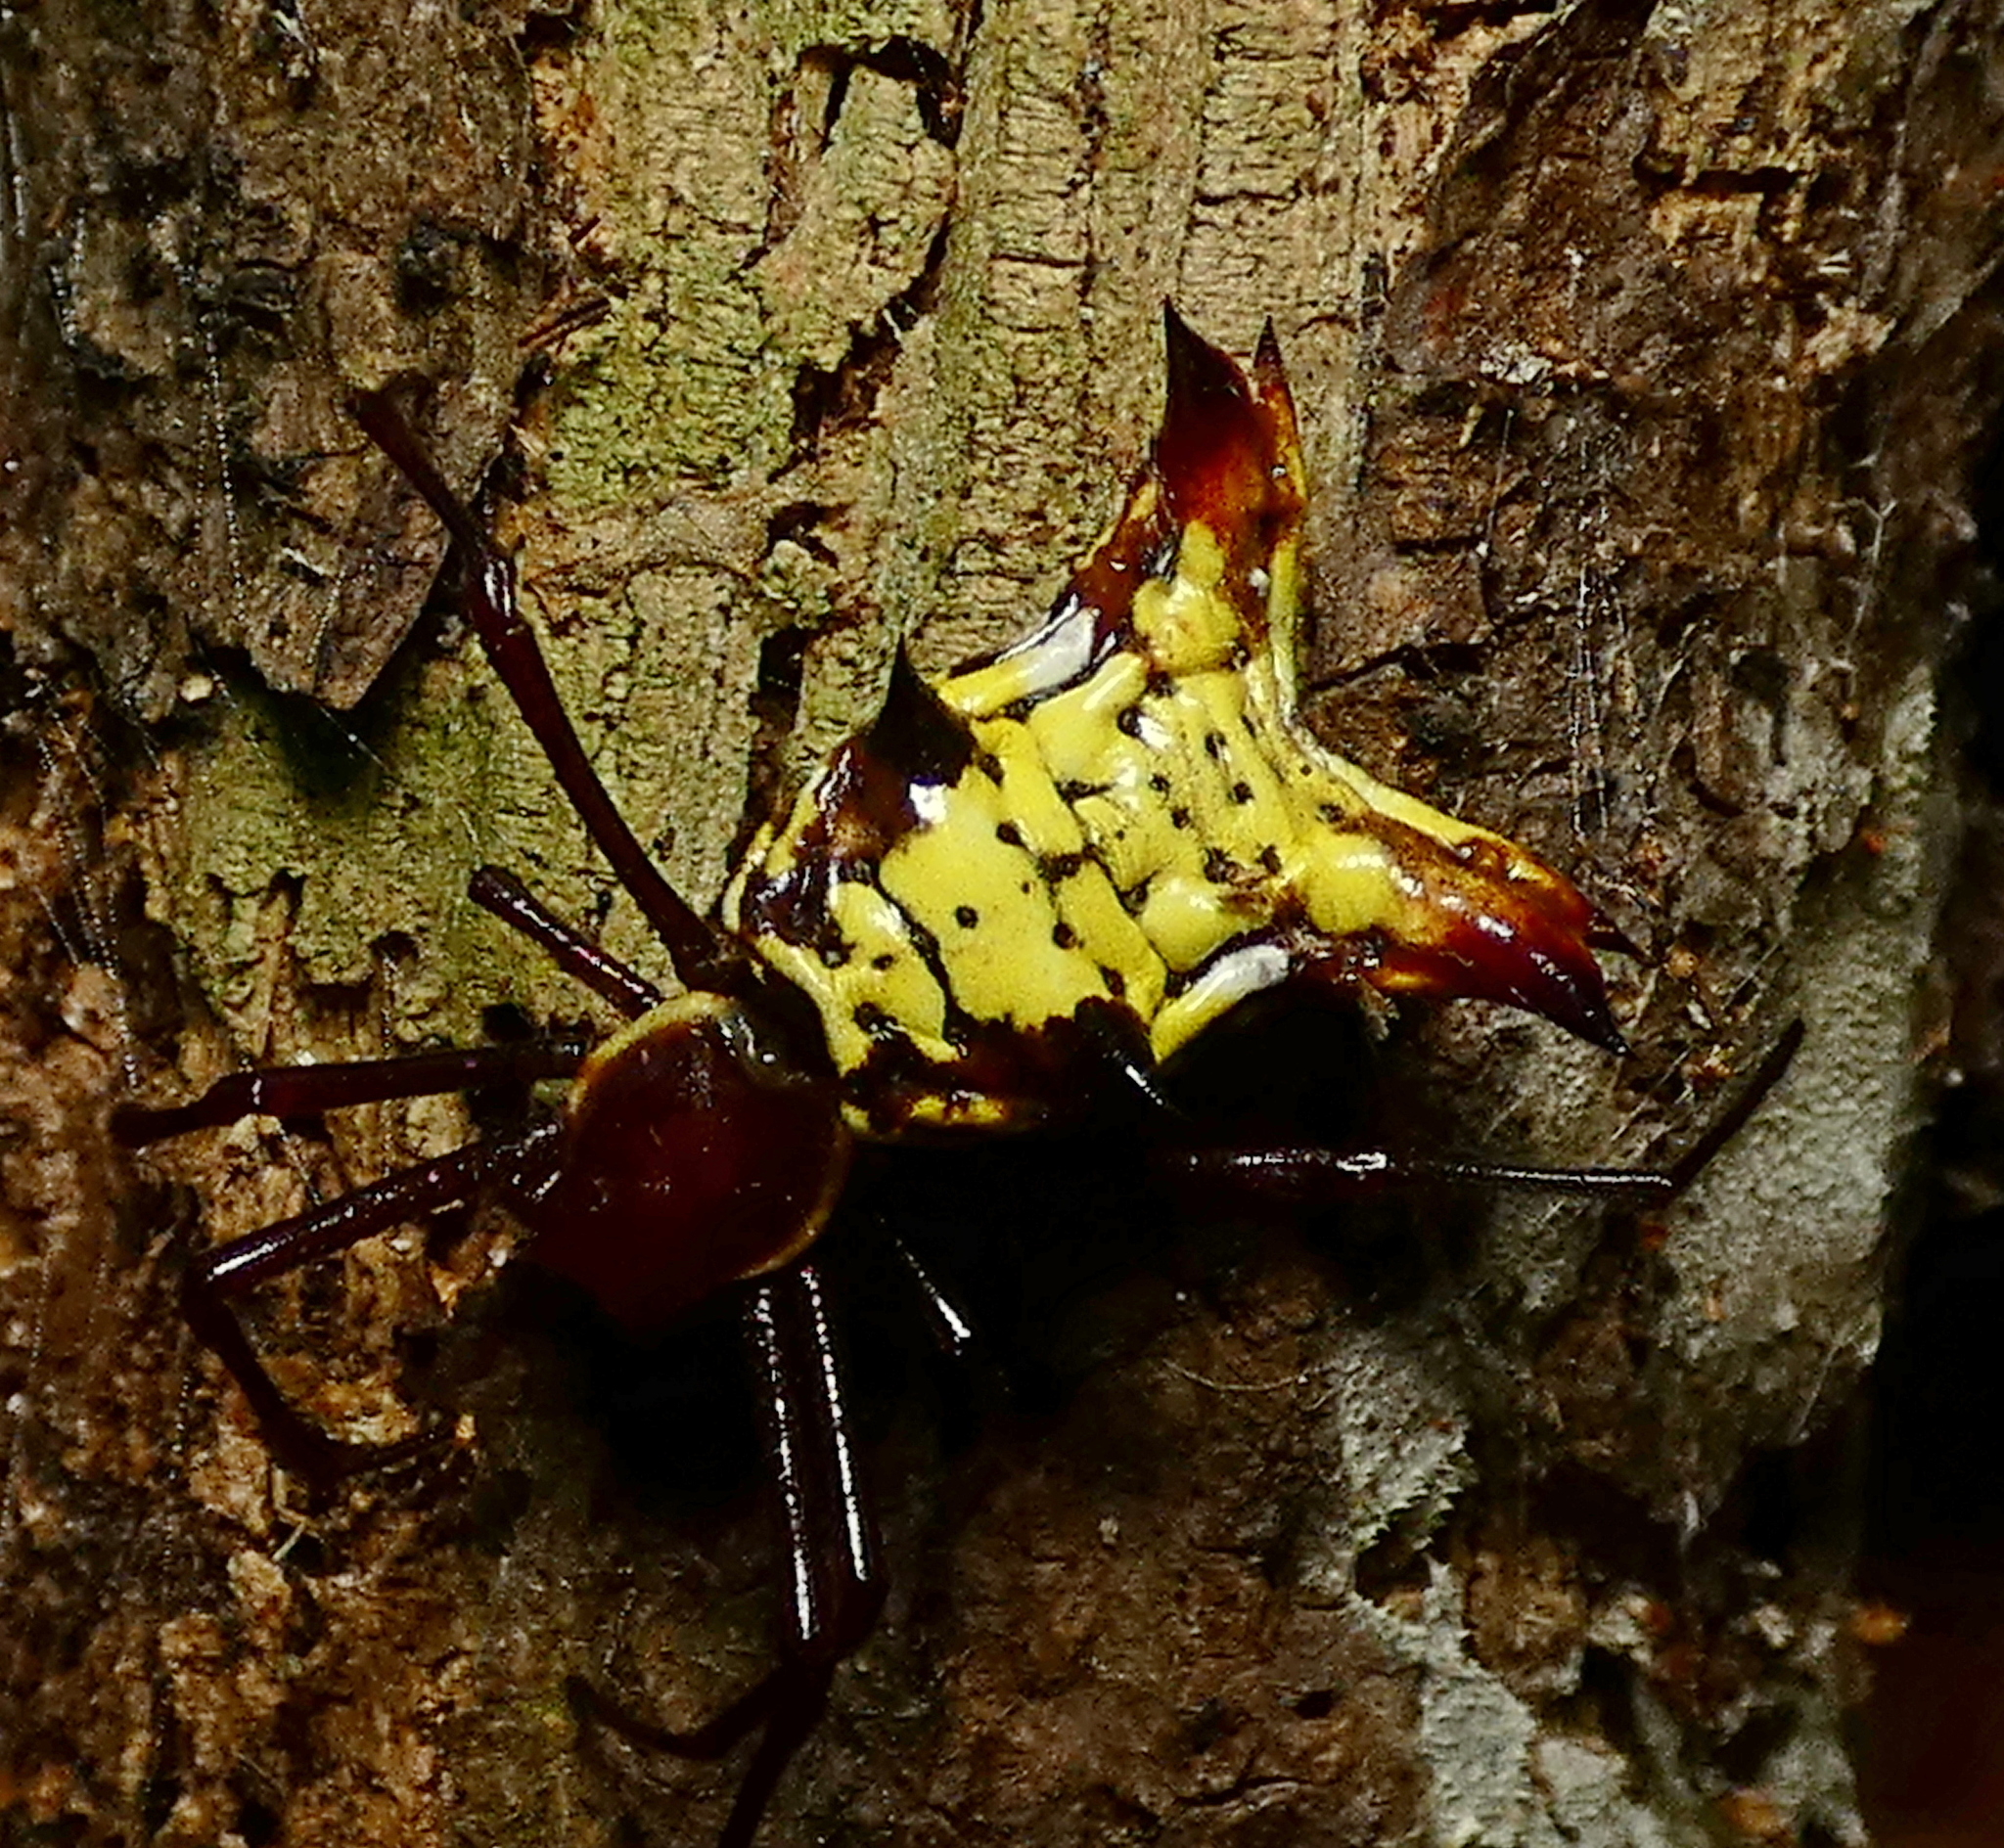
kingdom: Animalia
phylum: Arthropoda
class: Arachnida
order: Araneae
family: Araneidae
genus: Micrathena
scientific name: Micrathena fissispina
